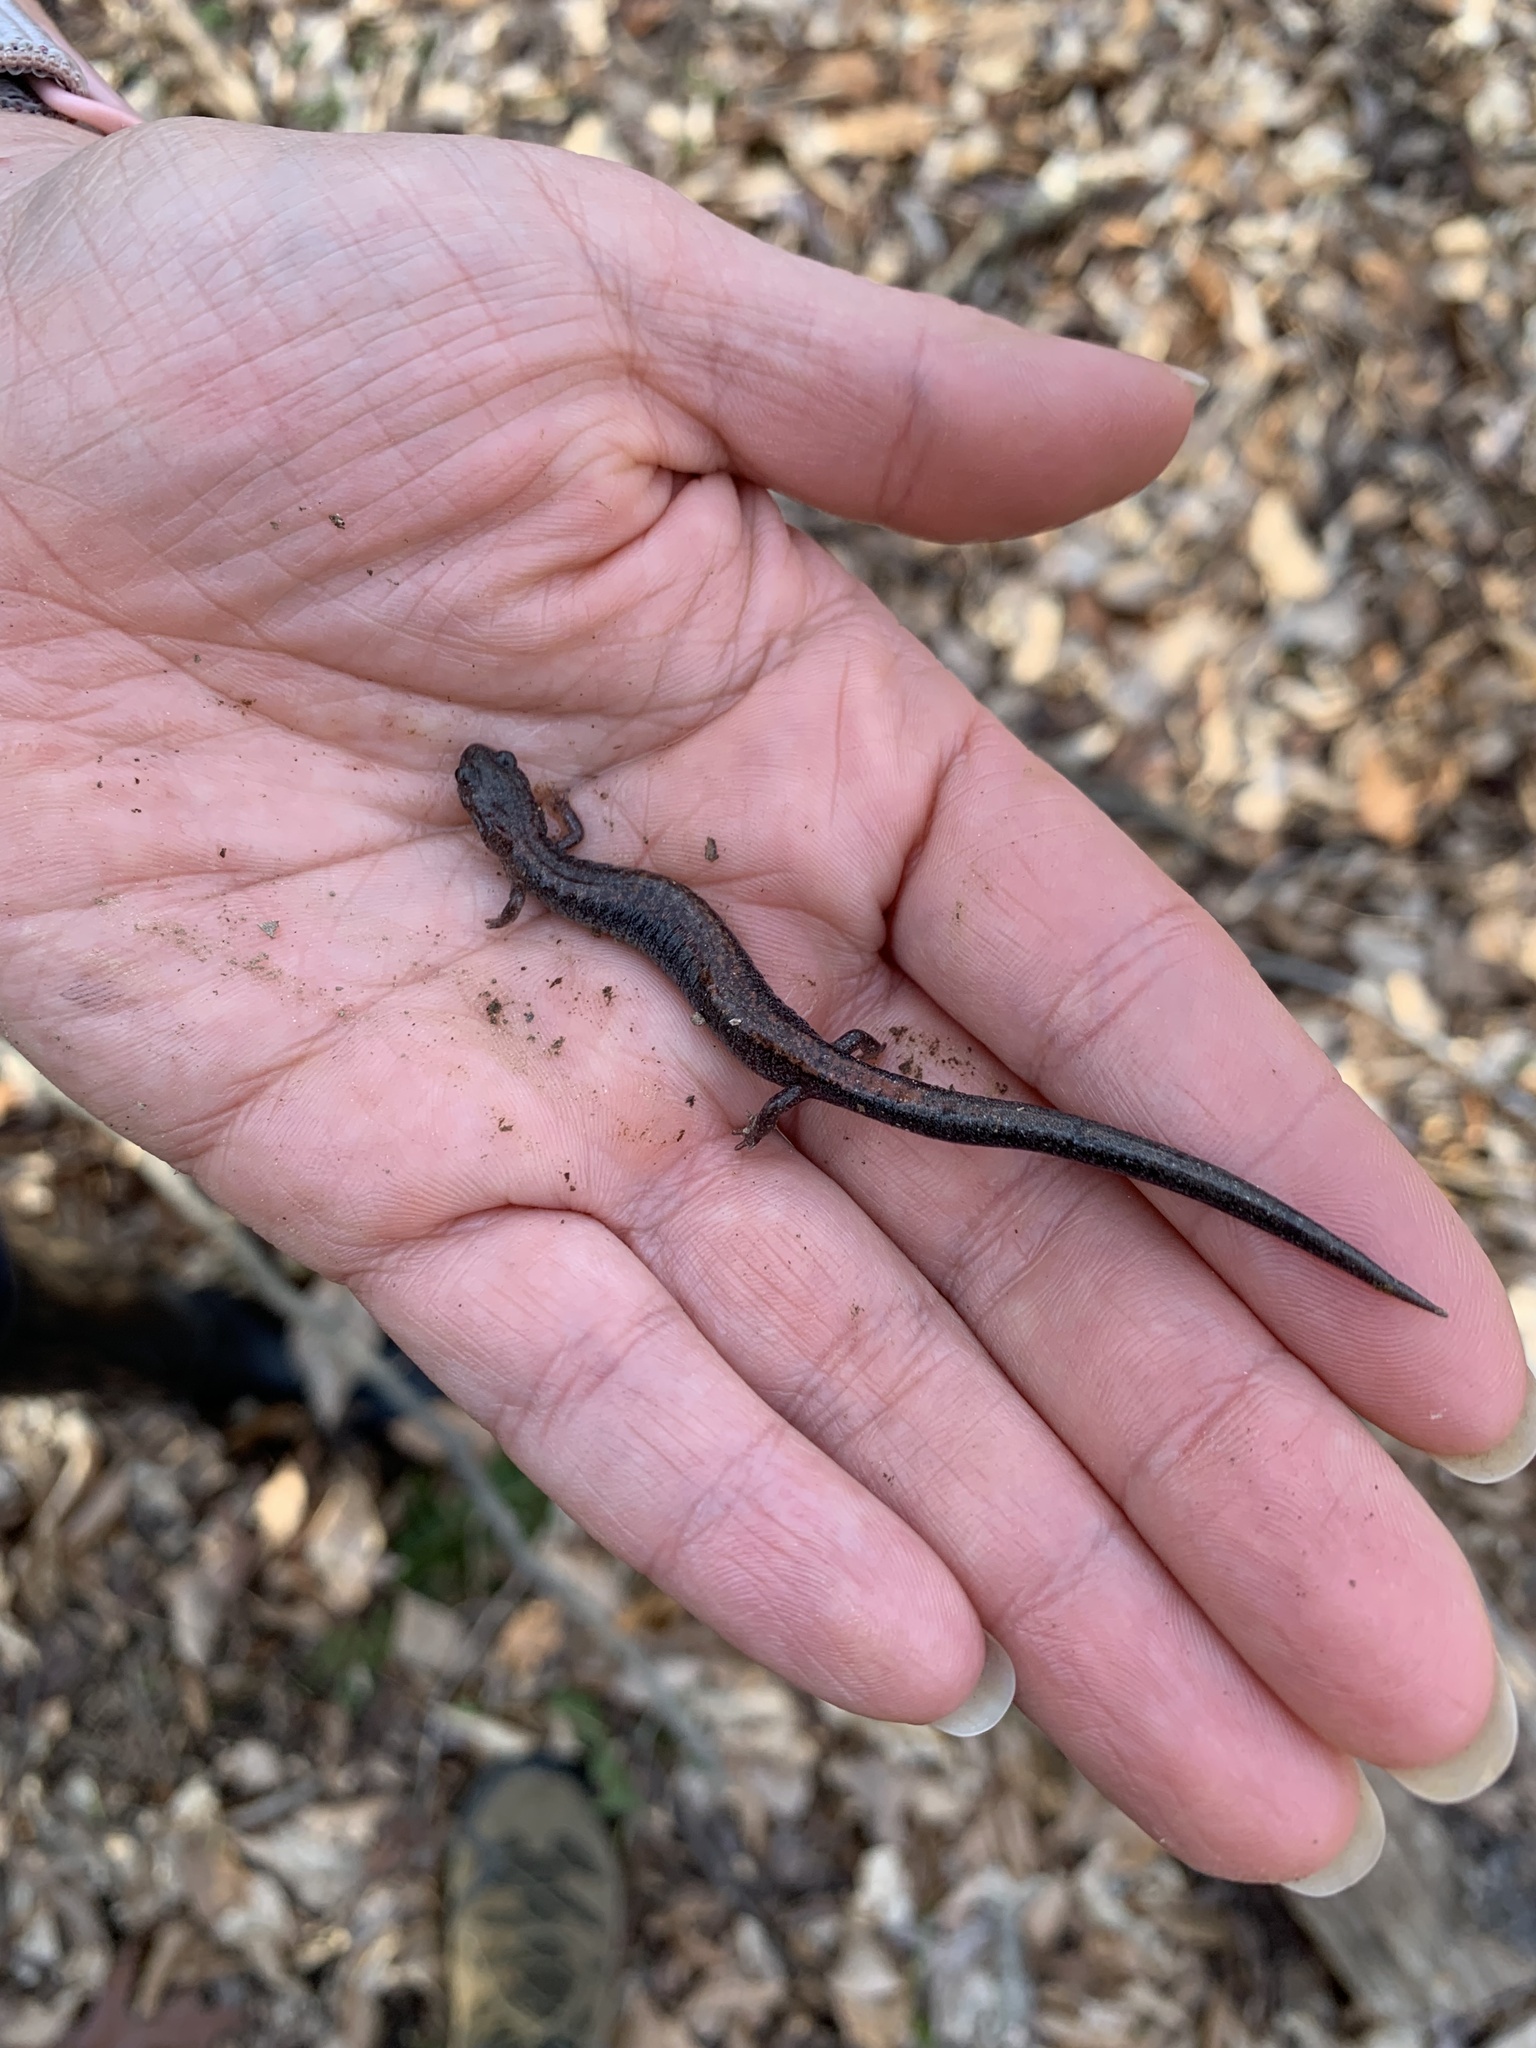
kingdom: Animalia
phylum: Chordata
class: Amphibia
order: Caudata
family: Plethodontidae
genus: Plethodon
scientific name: Plethodon cinereus
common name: Redback salamander
